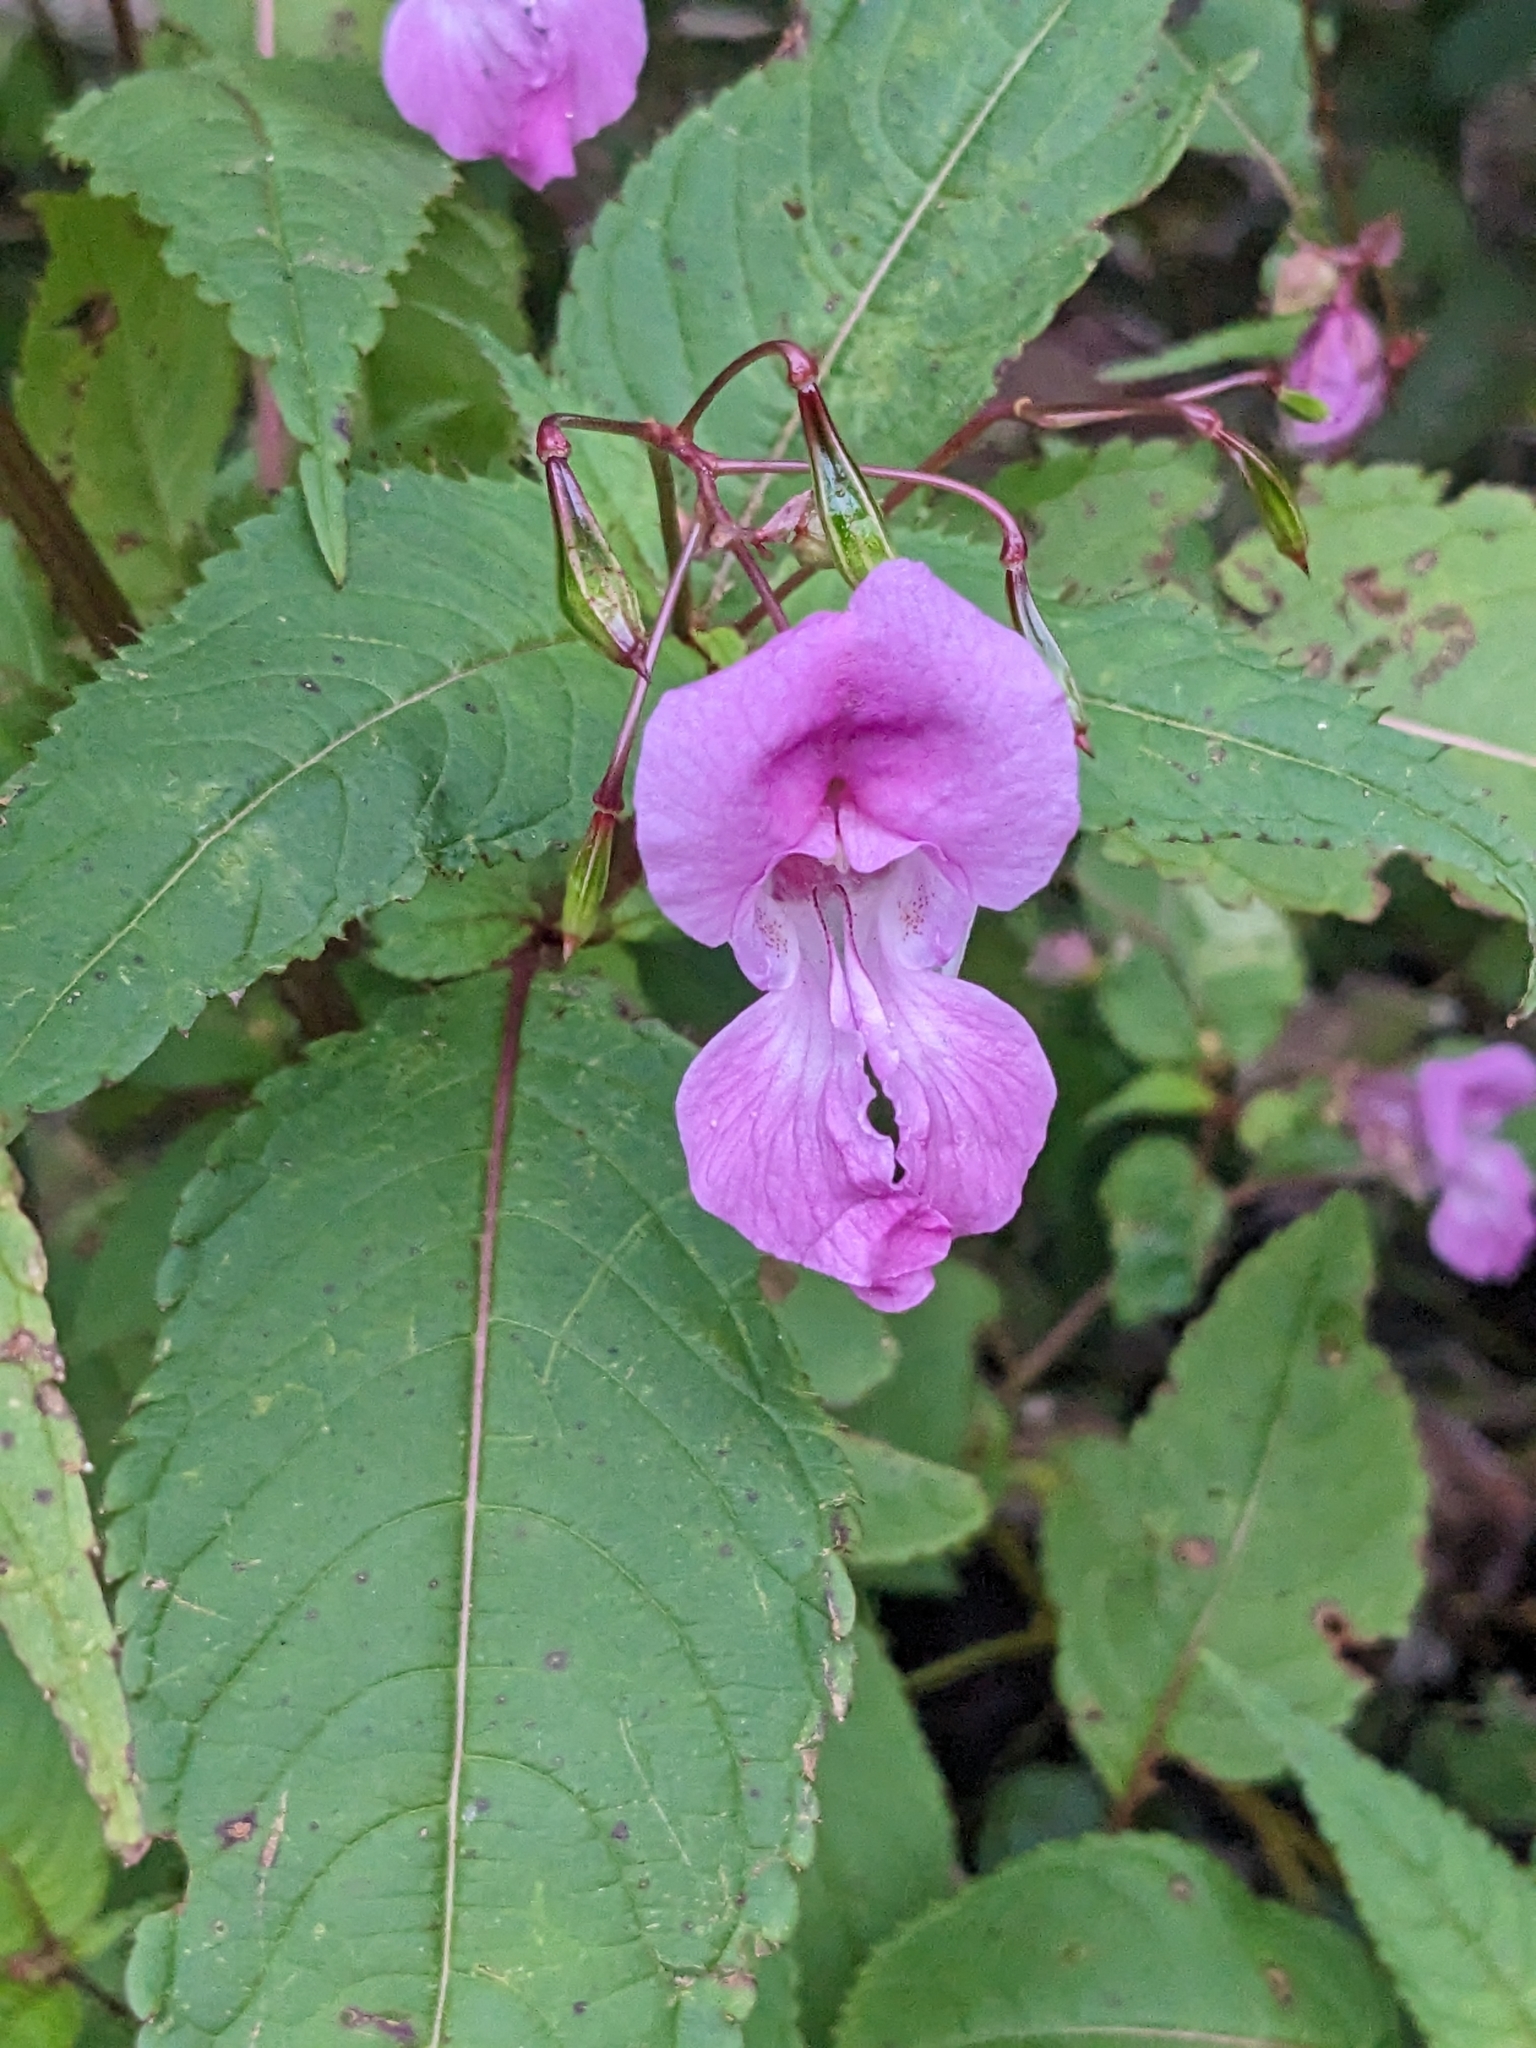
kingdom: Plantae
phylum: Tracheophyta
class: Magnoliopsida
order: Ericales
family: Balsaminaceae
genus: Impatiens
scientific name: Impatiens glandulifera
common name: Himalayan balsam
